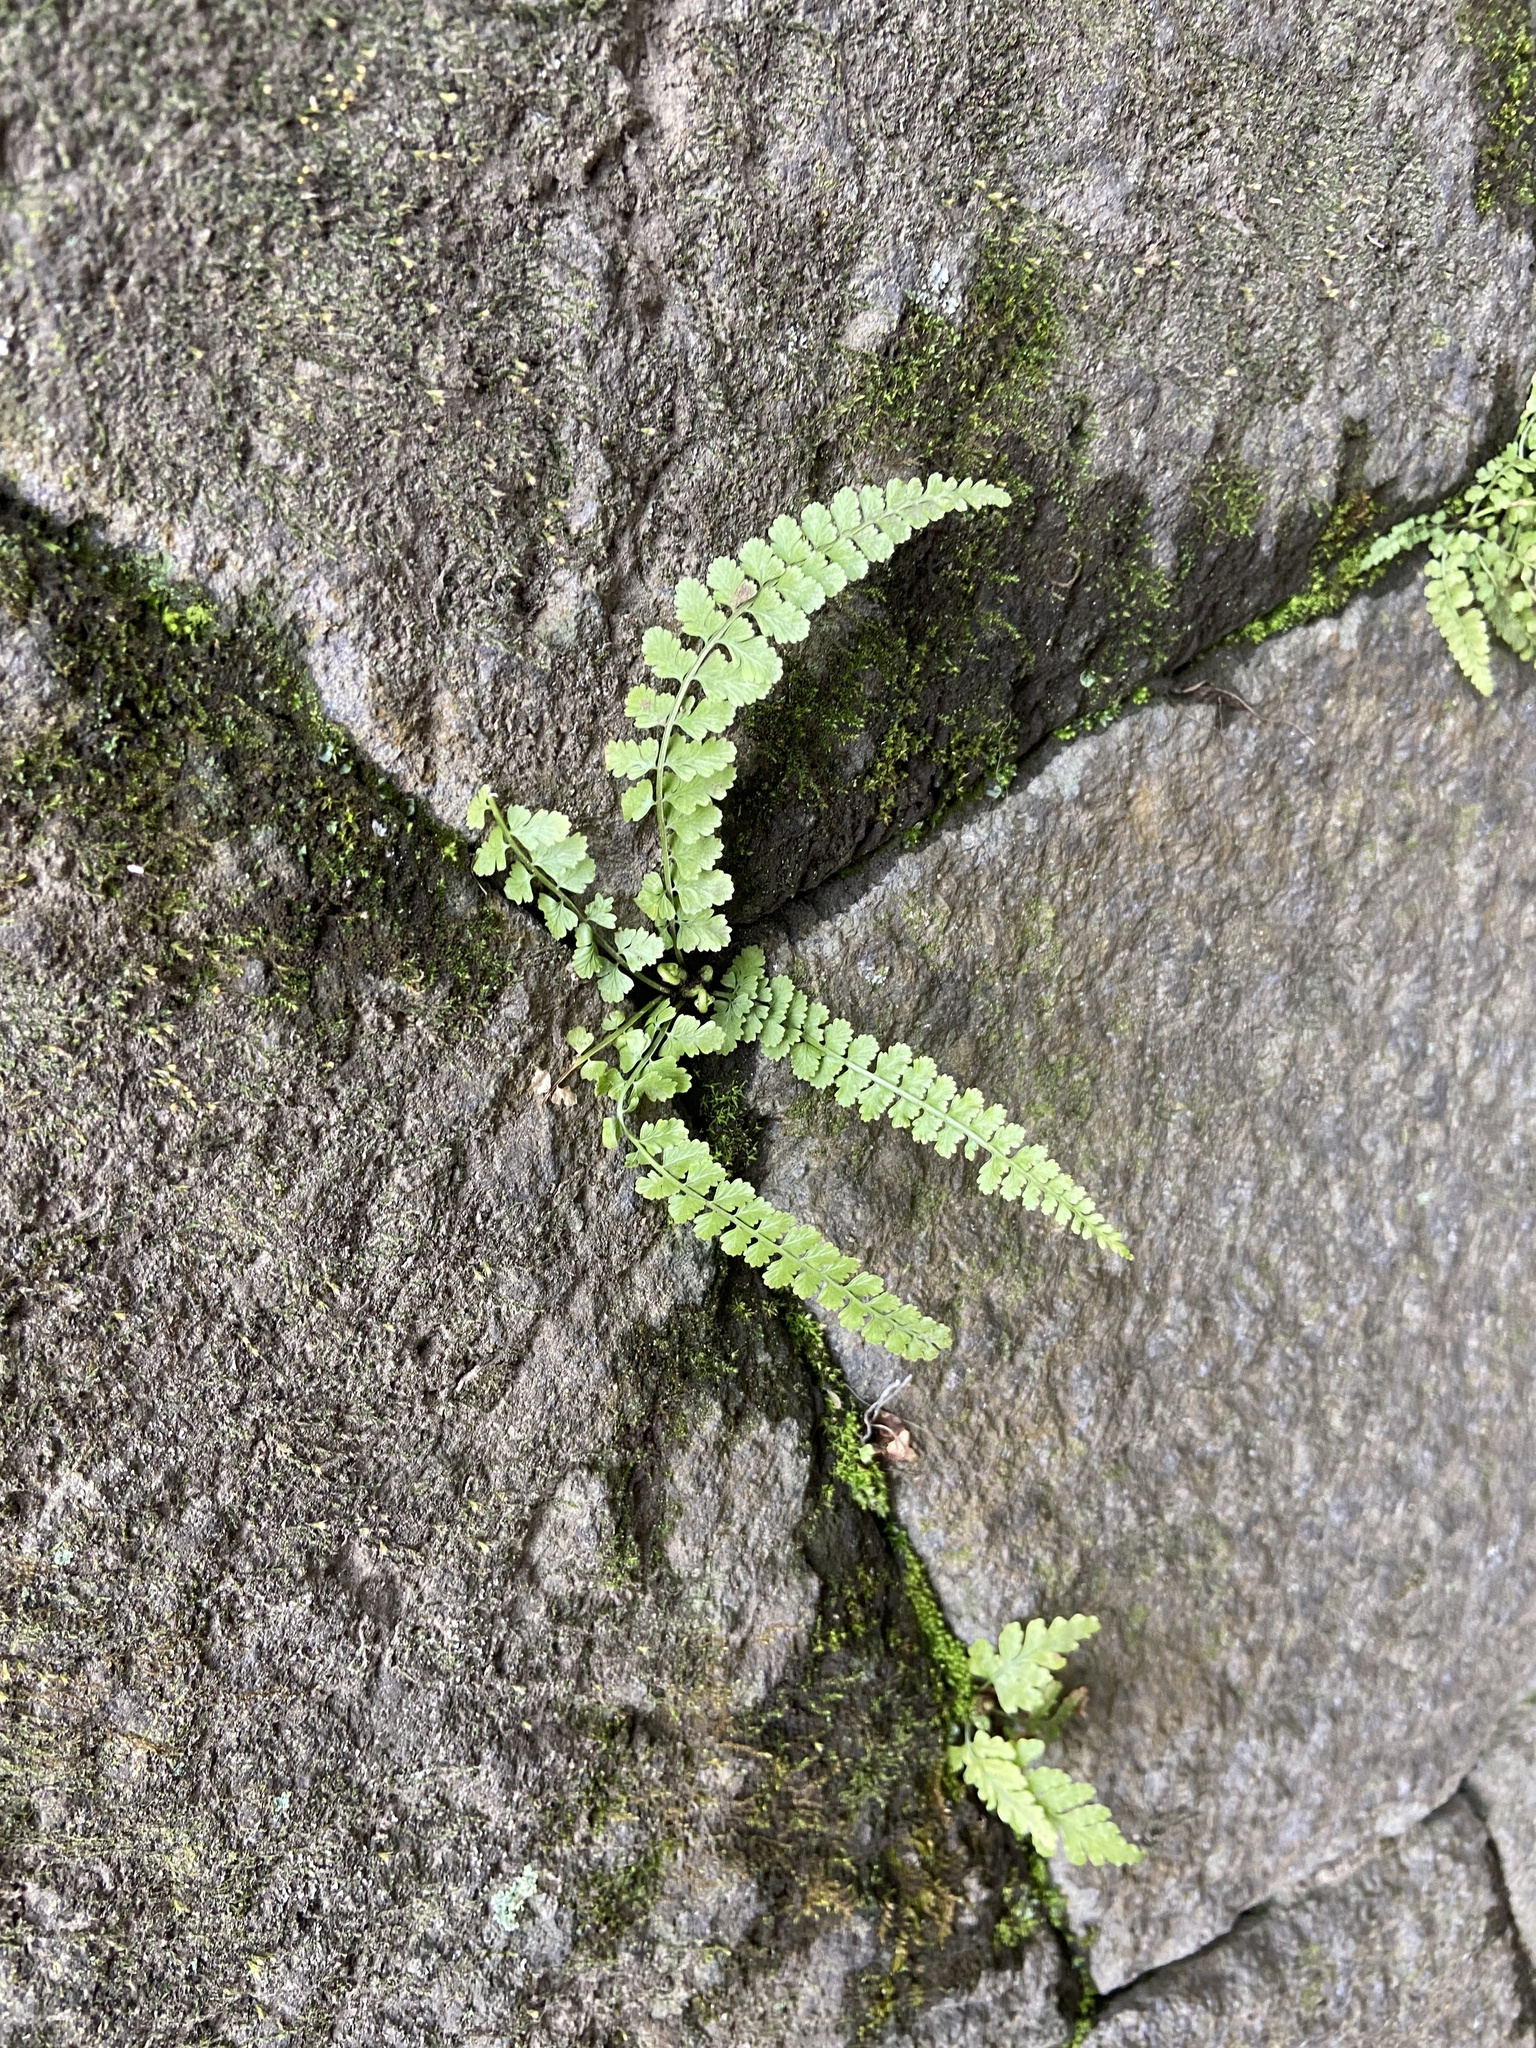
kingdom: Plantae
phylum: Tracheophyta
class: Polypodiopsida
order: Polypodiales
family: Aspleniaceae
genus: Asplenium
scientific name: Asplenium incisum
